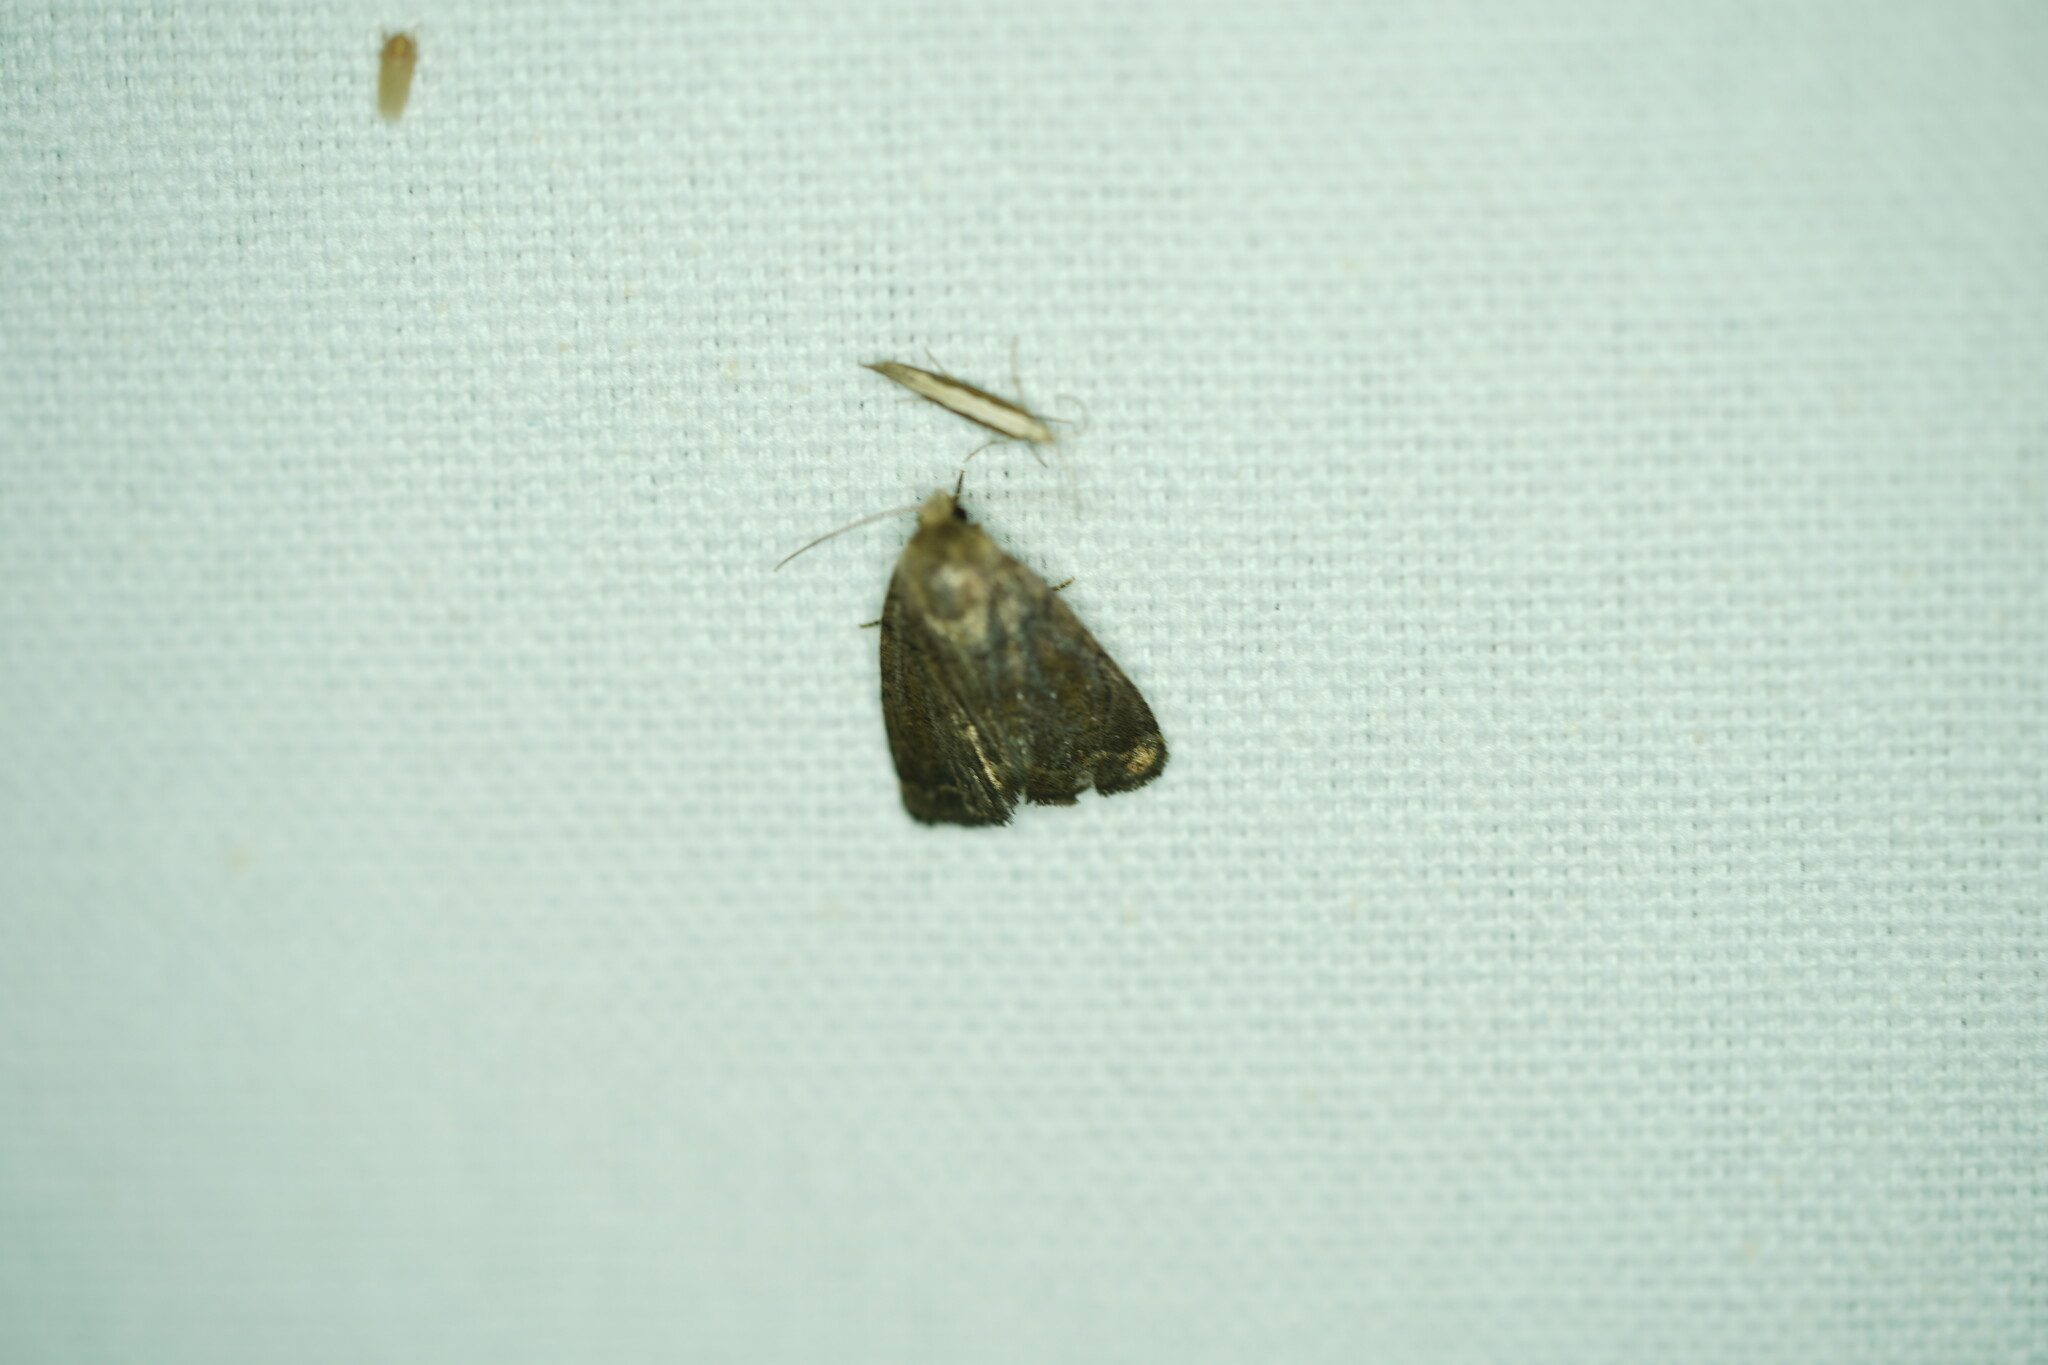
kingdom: Animalia
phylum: Arthropoda
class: Insecta
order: Lepidoptera
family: Noctuidae
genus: Athetis
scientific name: Athetis tarda
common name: Slowpoke moth
